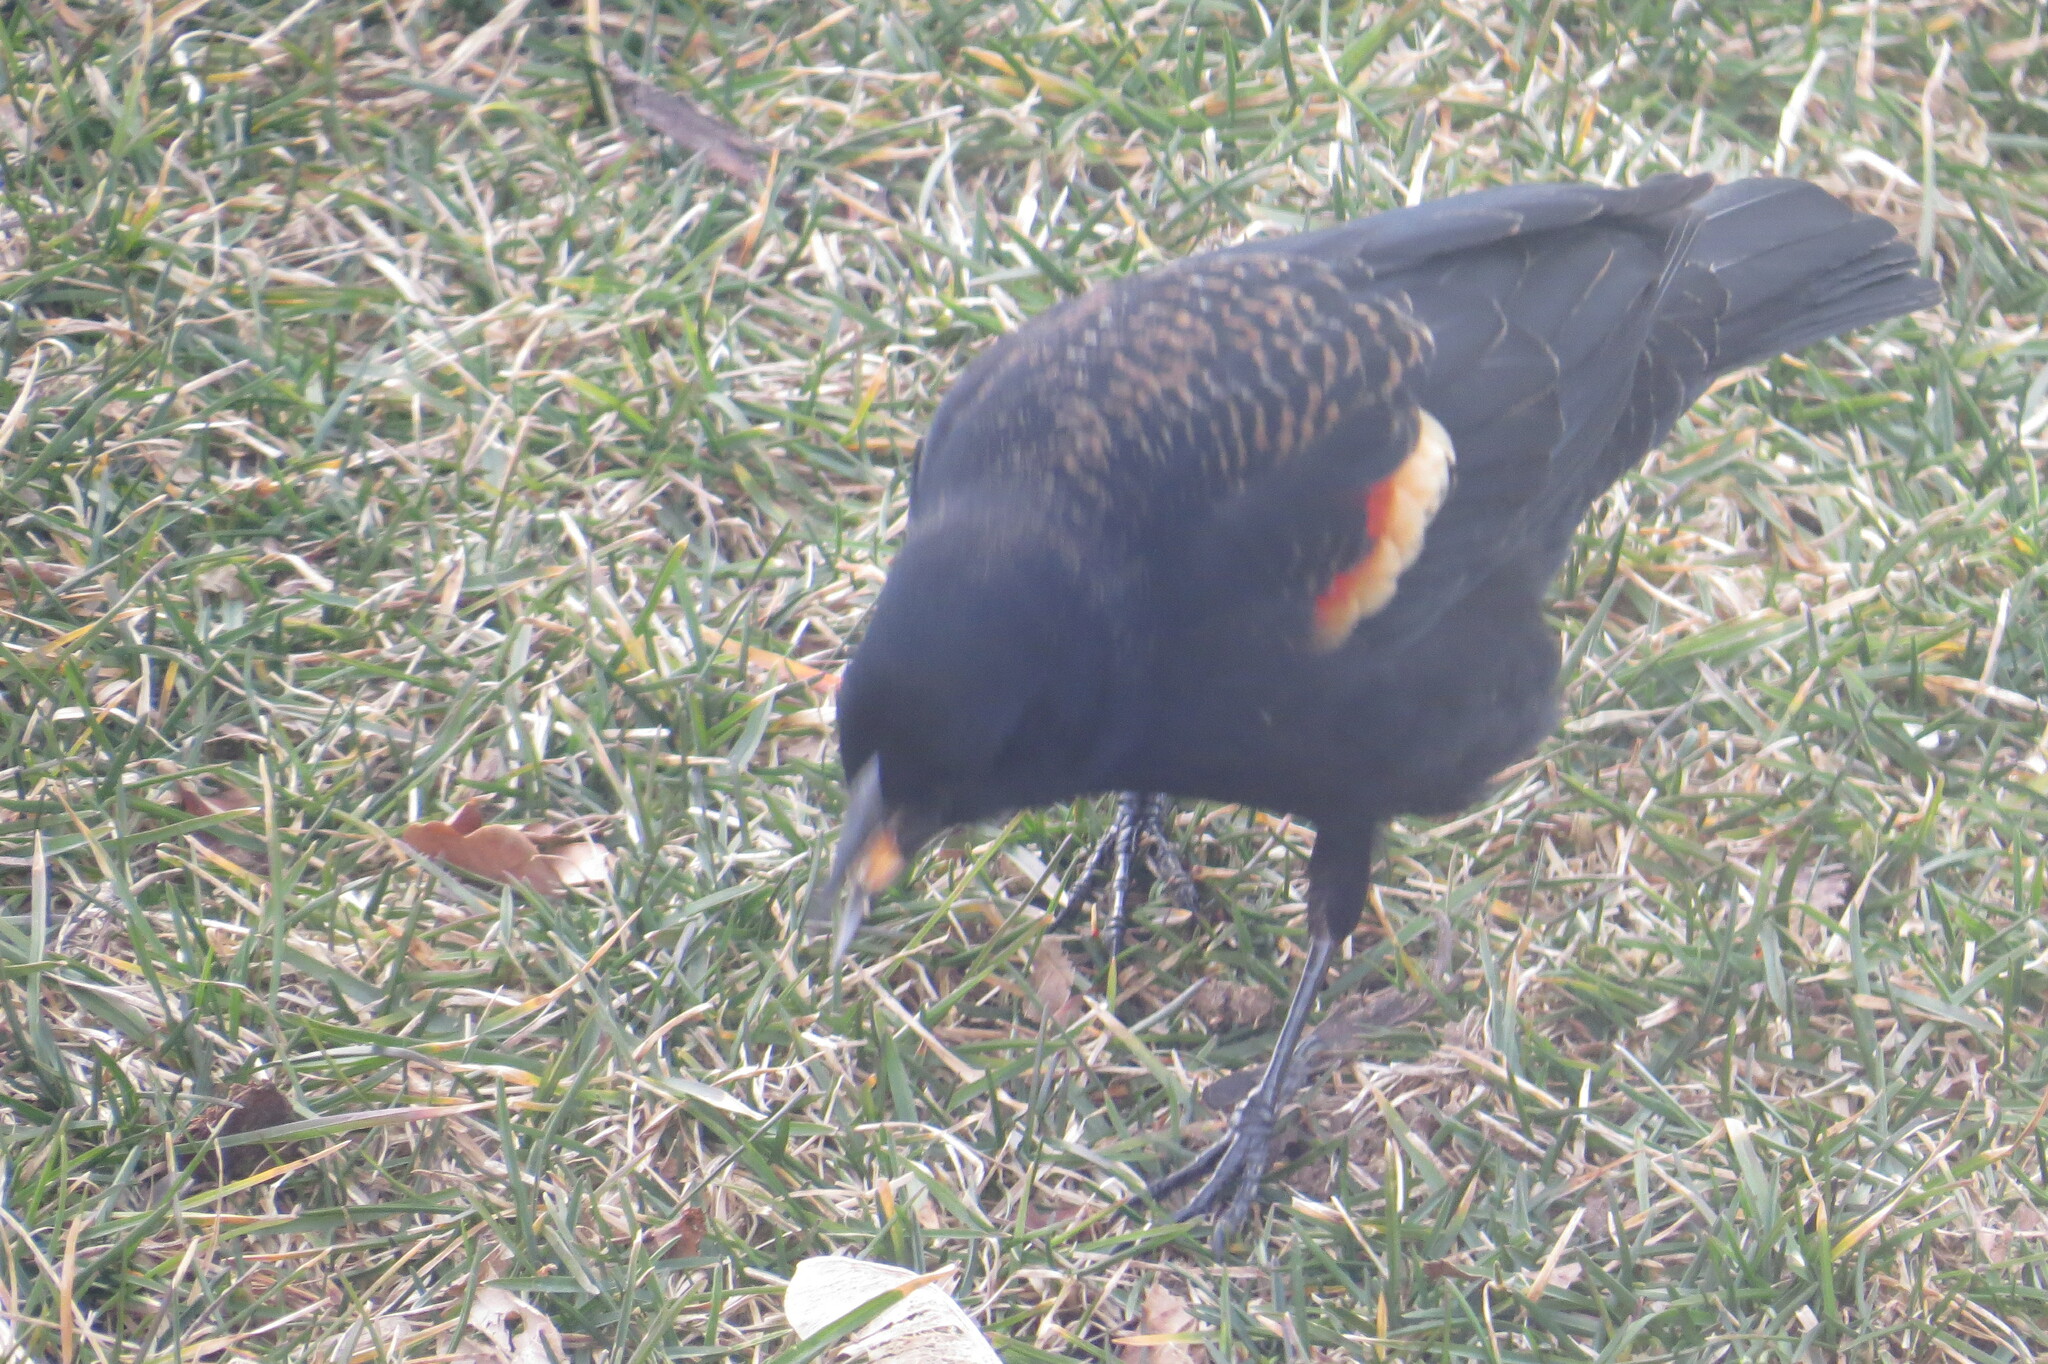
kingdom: Animalia
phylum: Chordata
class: Aves
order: Passeriformes
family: Icteridae
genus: Agelaius
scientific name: Agelaius phoeniceus
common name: Red-winged blackbird
